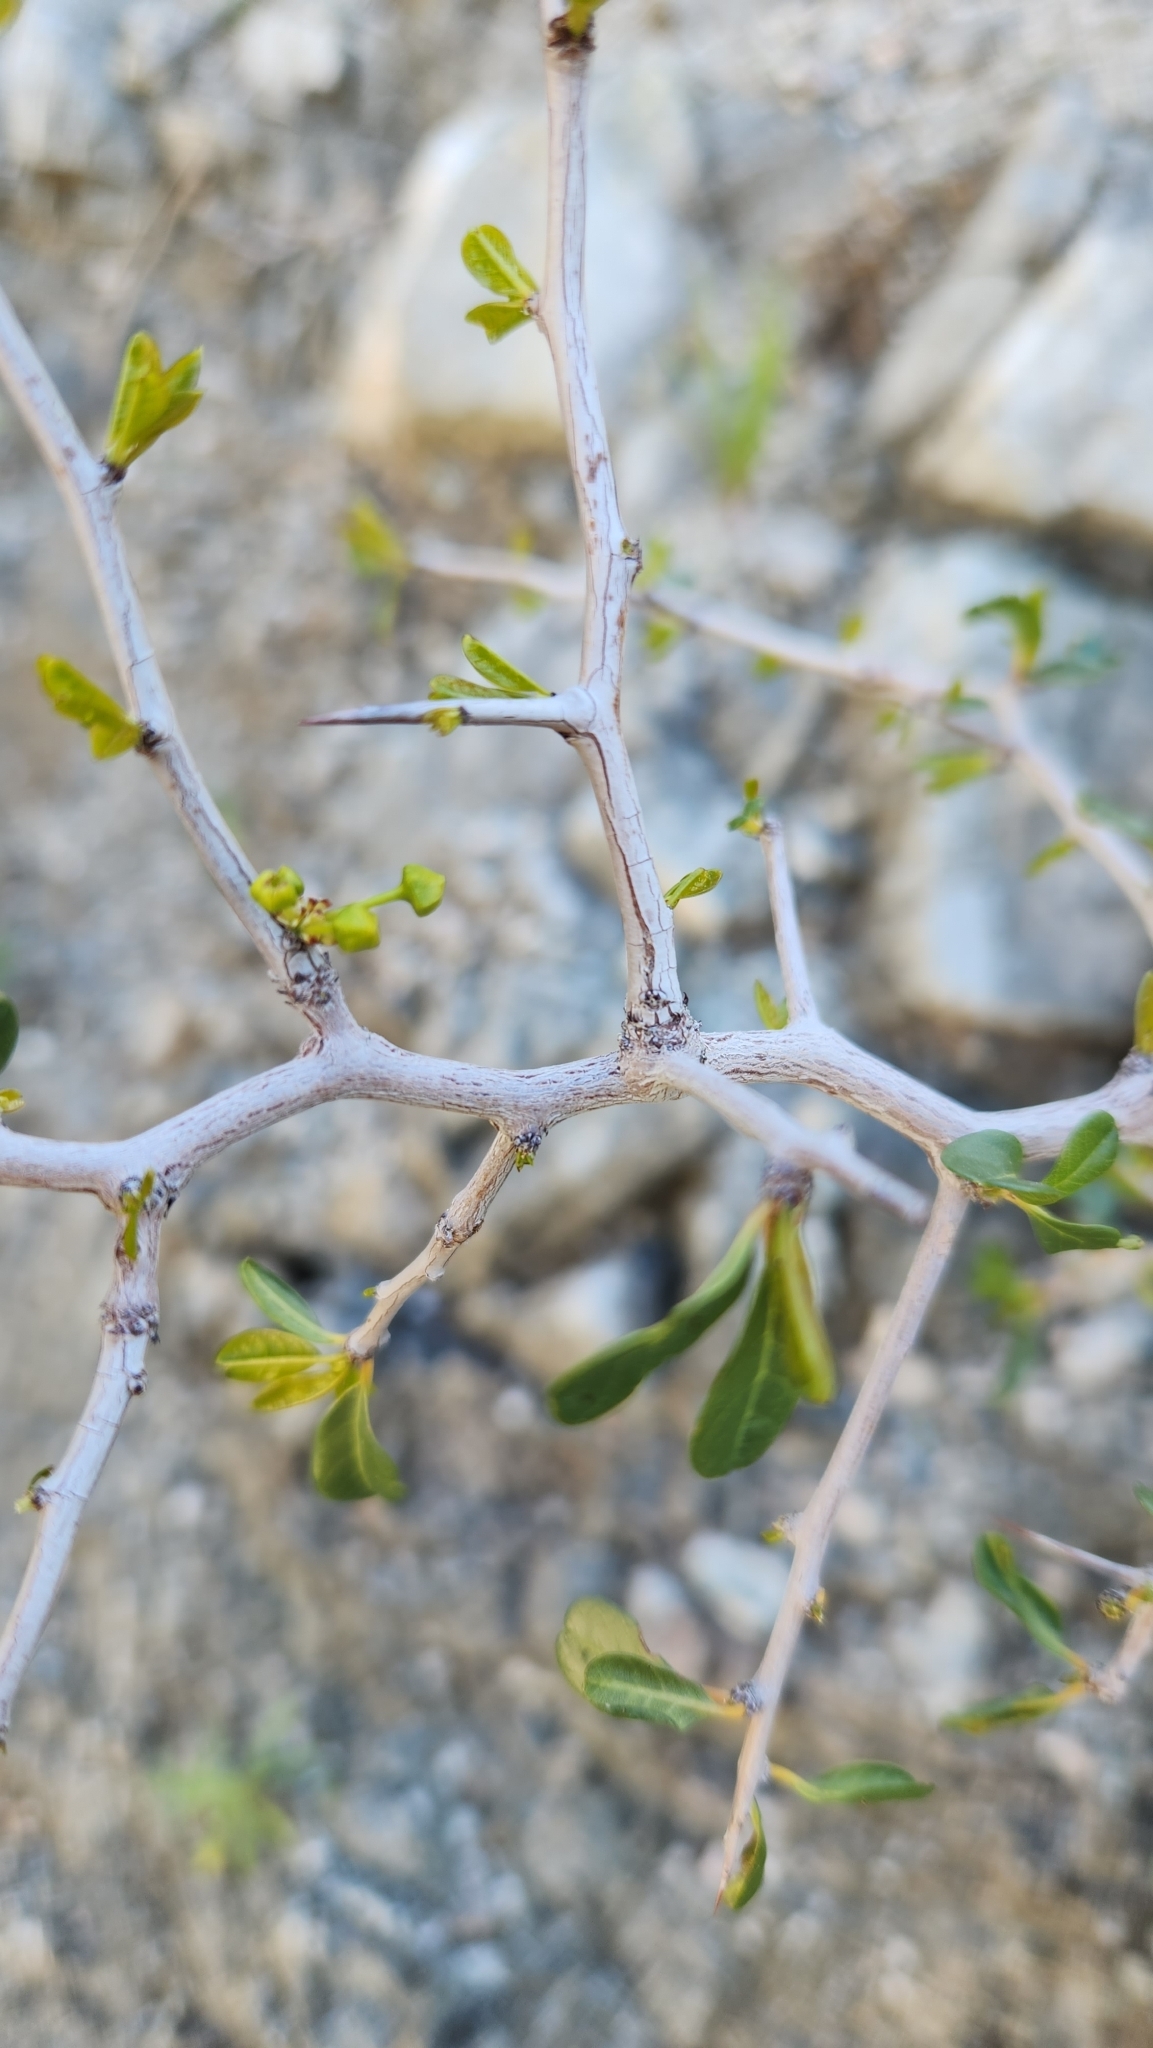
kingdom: Plantae
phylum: Tracheophyta
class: Magnoliopsida
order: Rosales
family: Rhamnaceae
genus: Pseudoziziphus
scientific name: Pseudoziziphus parryi
